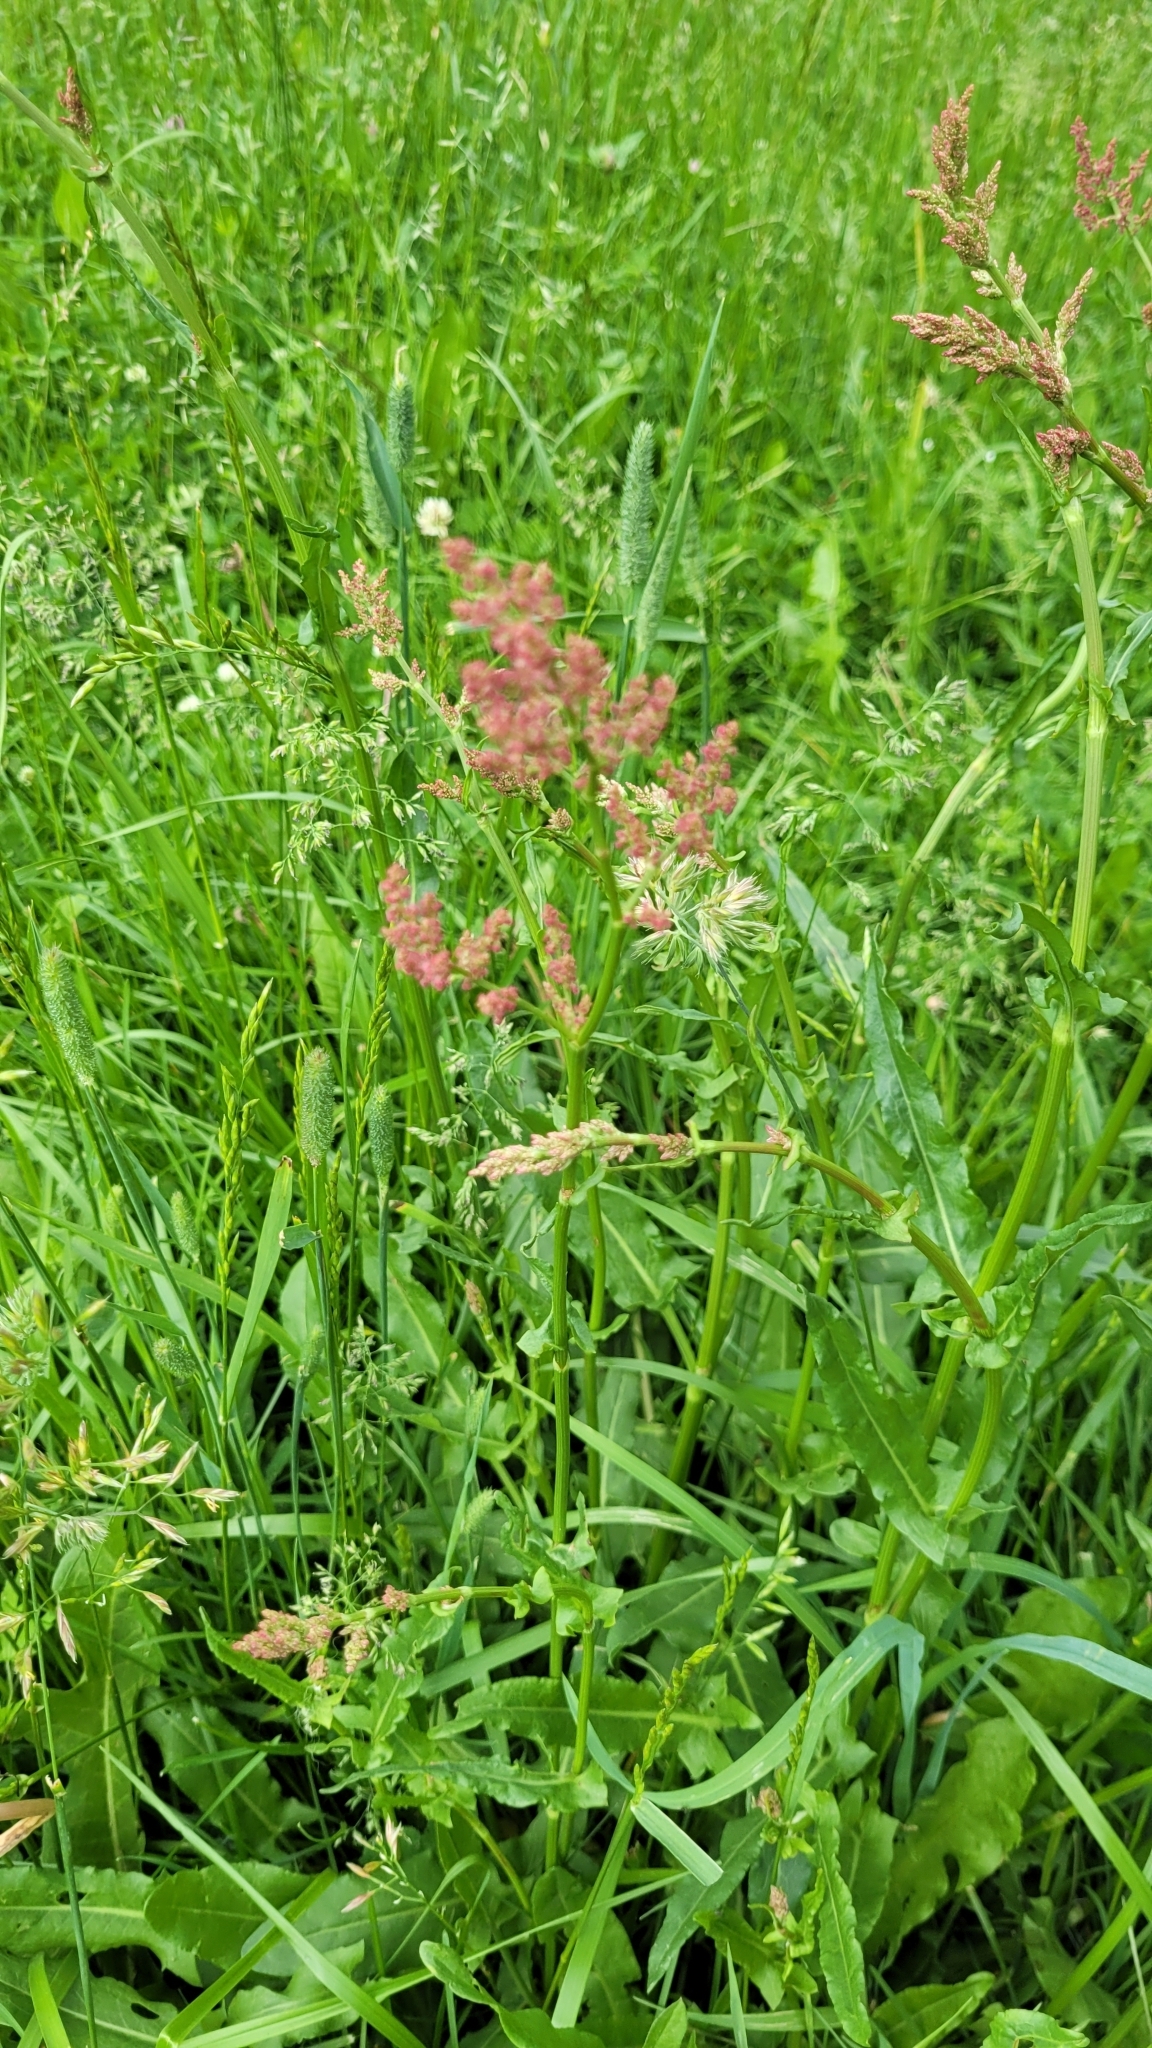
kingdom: Plantae
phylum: Tracheophyta
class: Magnoliopsida
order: Caryophyllales
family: Polygonaceae
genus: Rumex
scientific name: Rumex thyrsiflorus
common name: Garden sorrel
